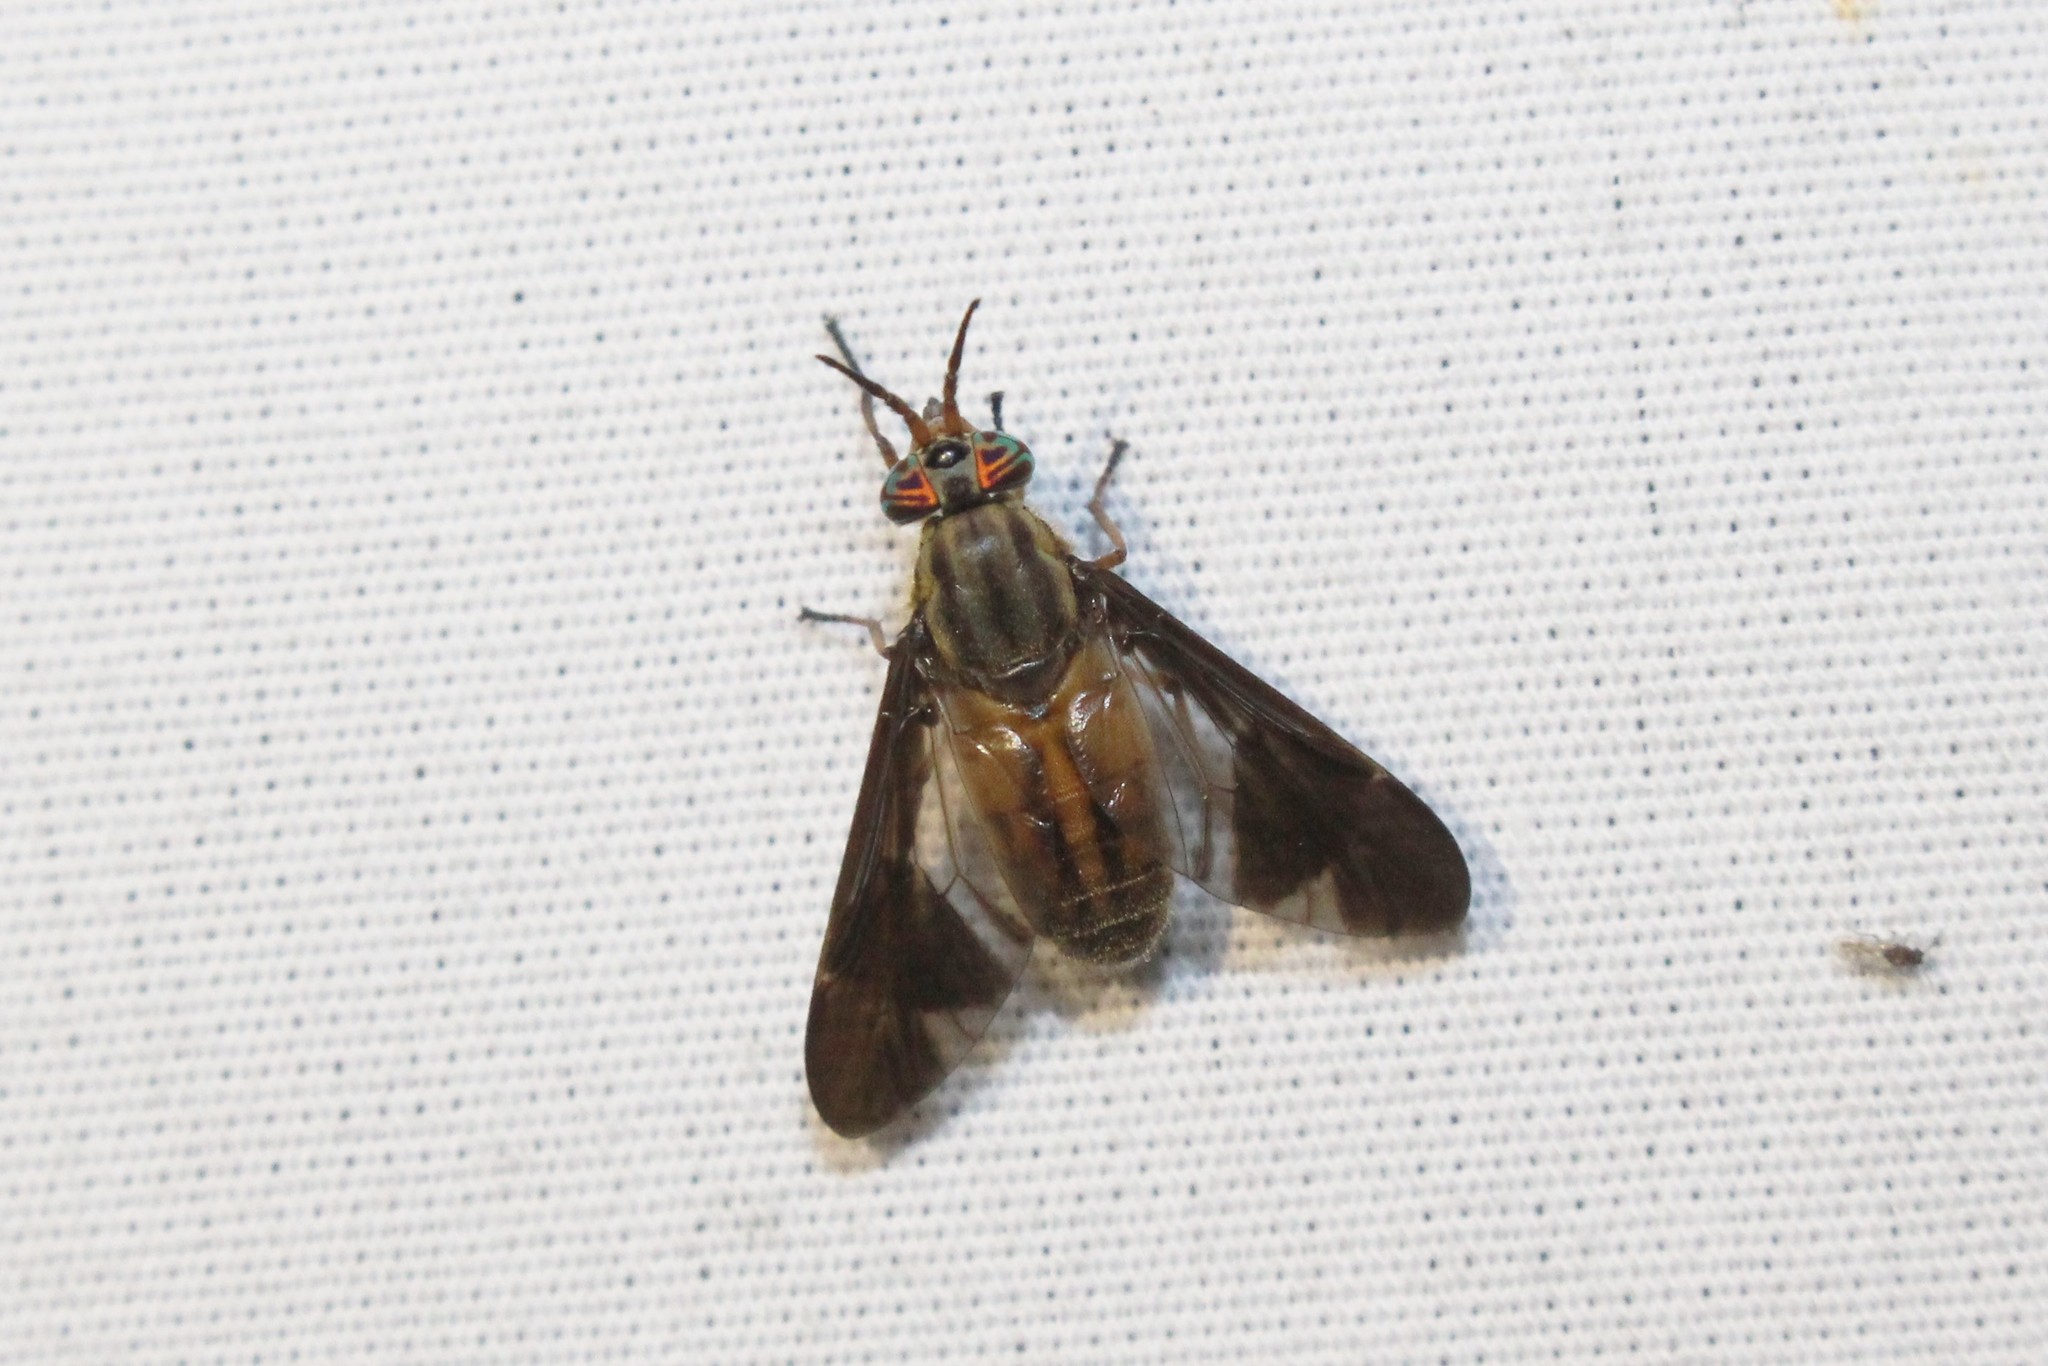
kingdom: Animalia
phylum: Arthropoda
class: Insecta
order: Diptera
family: Tabanidae
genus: Chrysops
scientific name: Chrysops moechus
